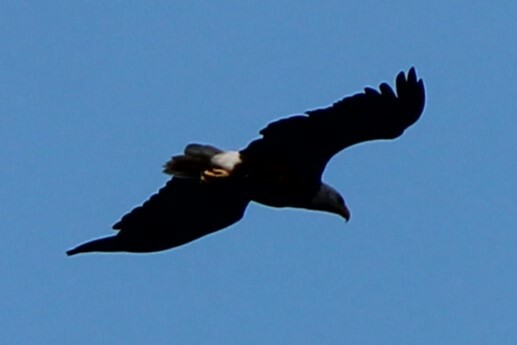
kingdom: Animalia
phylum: Chordata
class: Aves
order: Accipitriformes
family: Accipitridae
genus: Haliaeetus
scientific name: Haliaeetus leucocephalus
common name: Bald eagle
